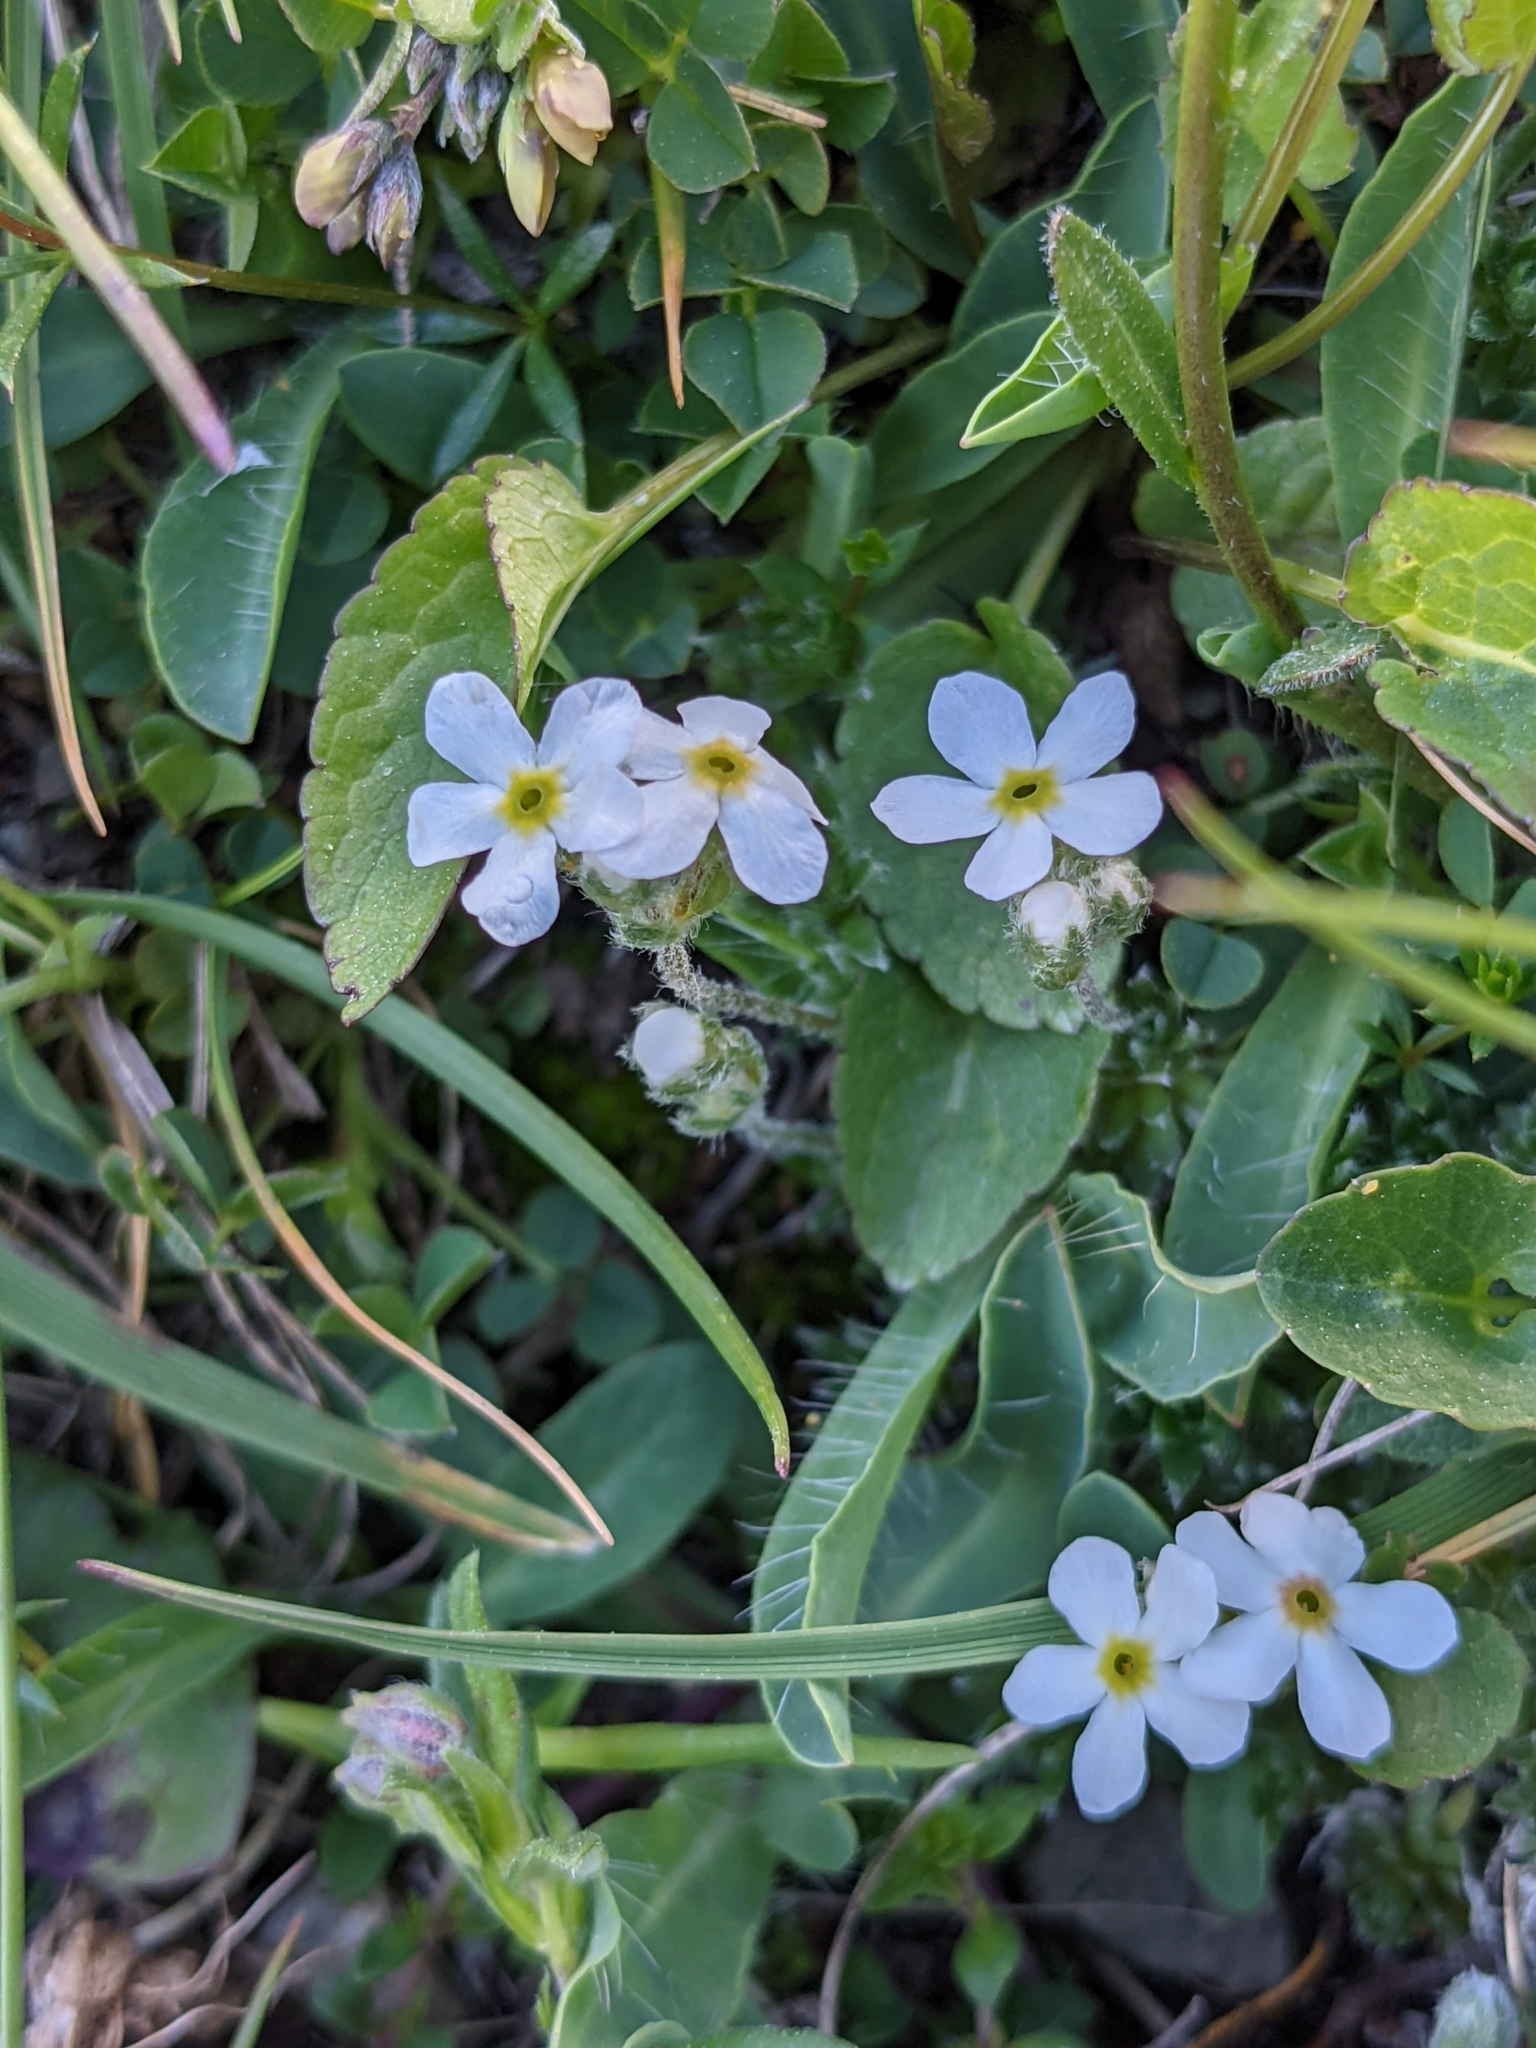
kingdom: Plantae
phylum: Tracheophyta
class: Magnoliopsida
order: Ericales
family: Primulaceae
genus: Androsace
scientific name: Androsace villosa
